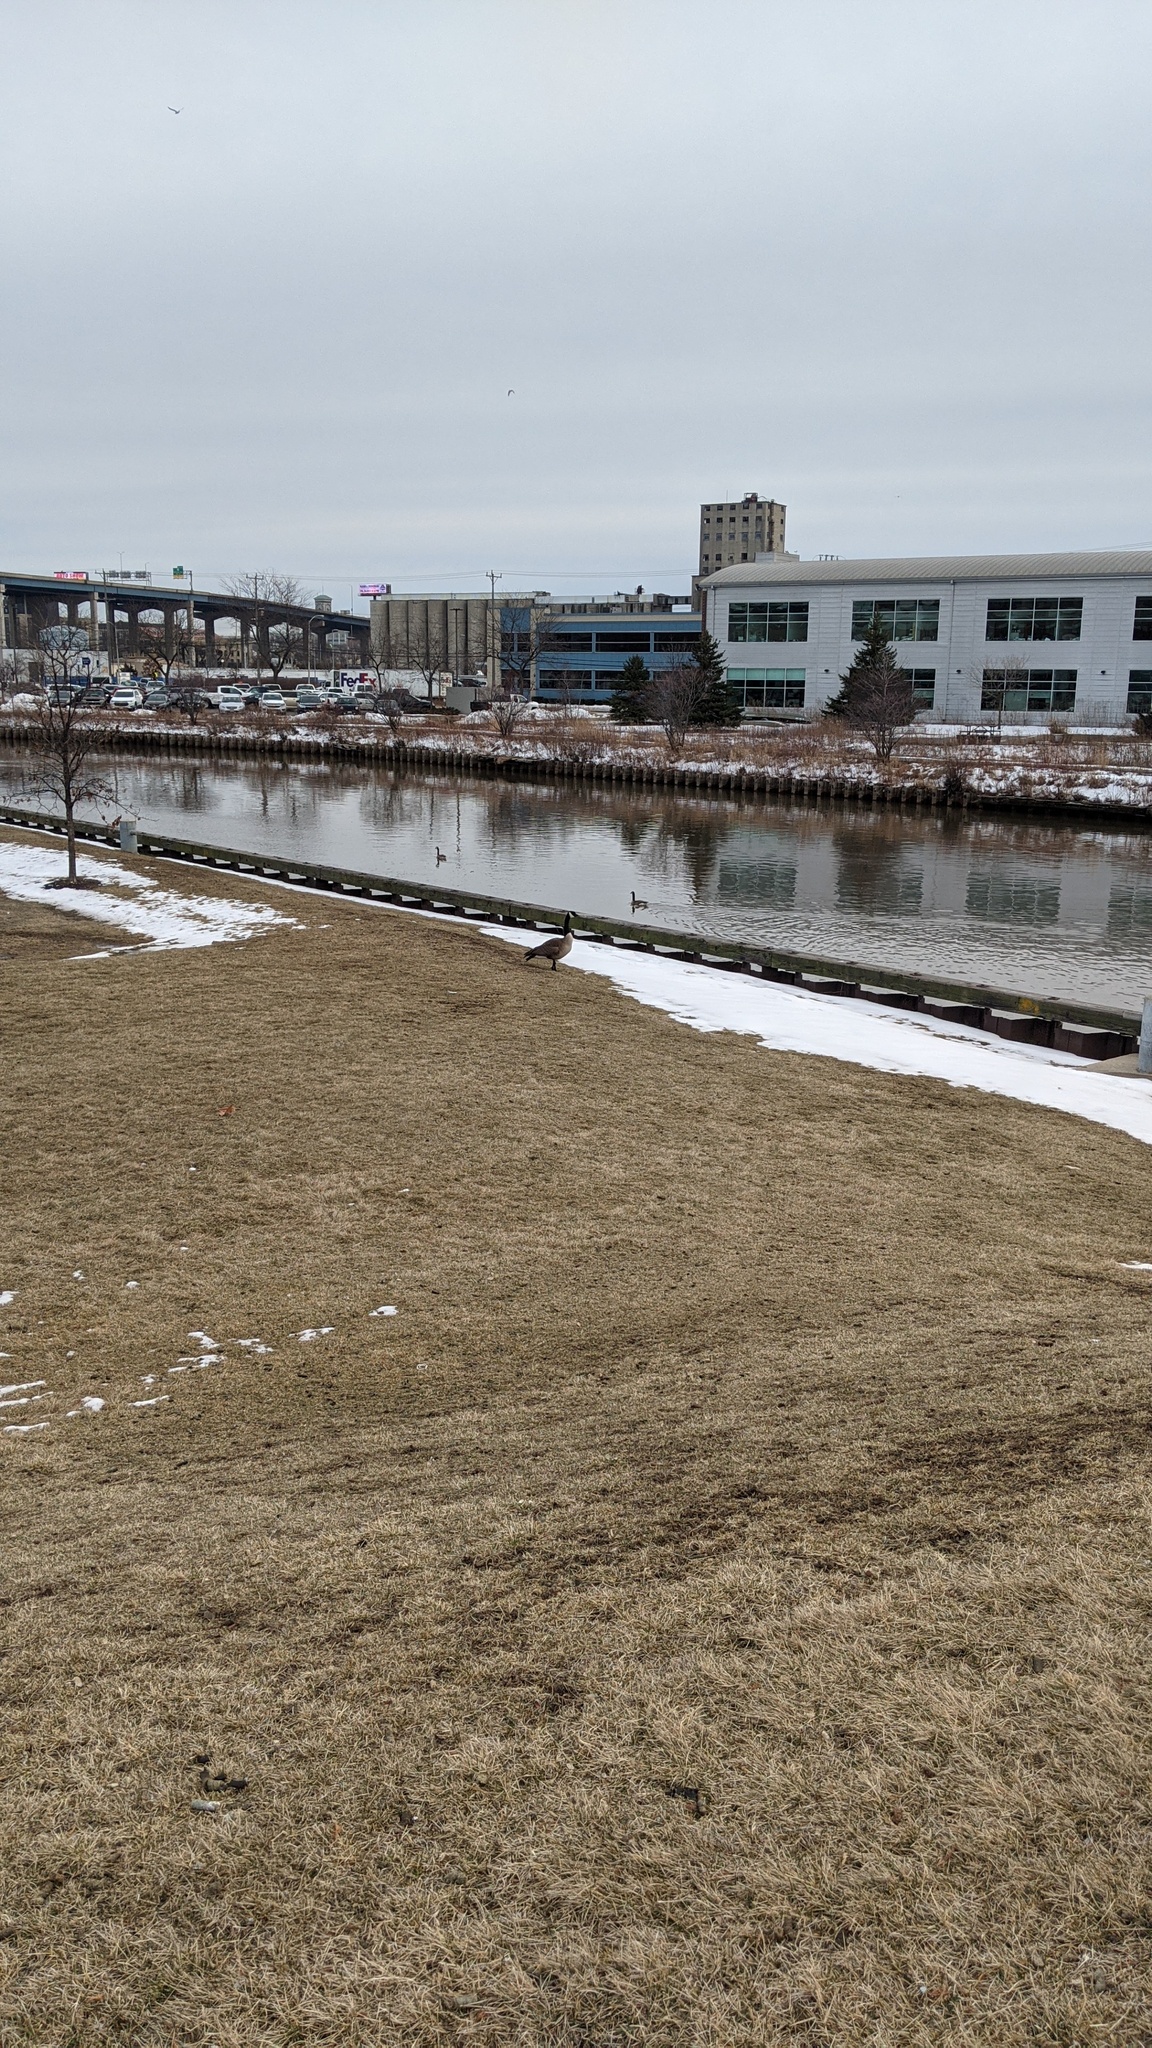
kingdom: Animalia
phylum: Chordata
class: Aves
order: Anseriformes
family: Anatidae
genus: Branta
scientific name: Branta canadensis
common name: Canada goose
